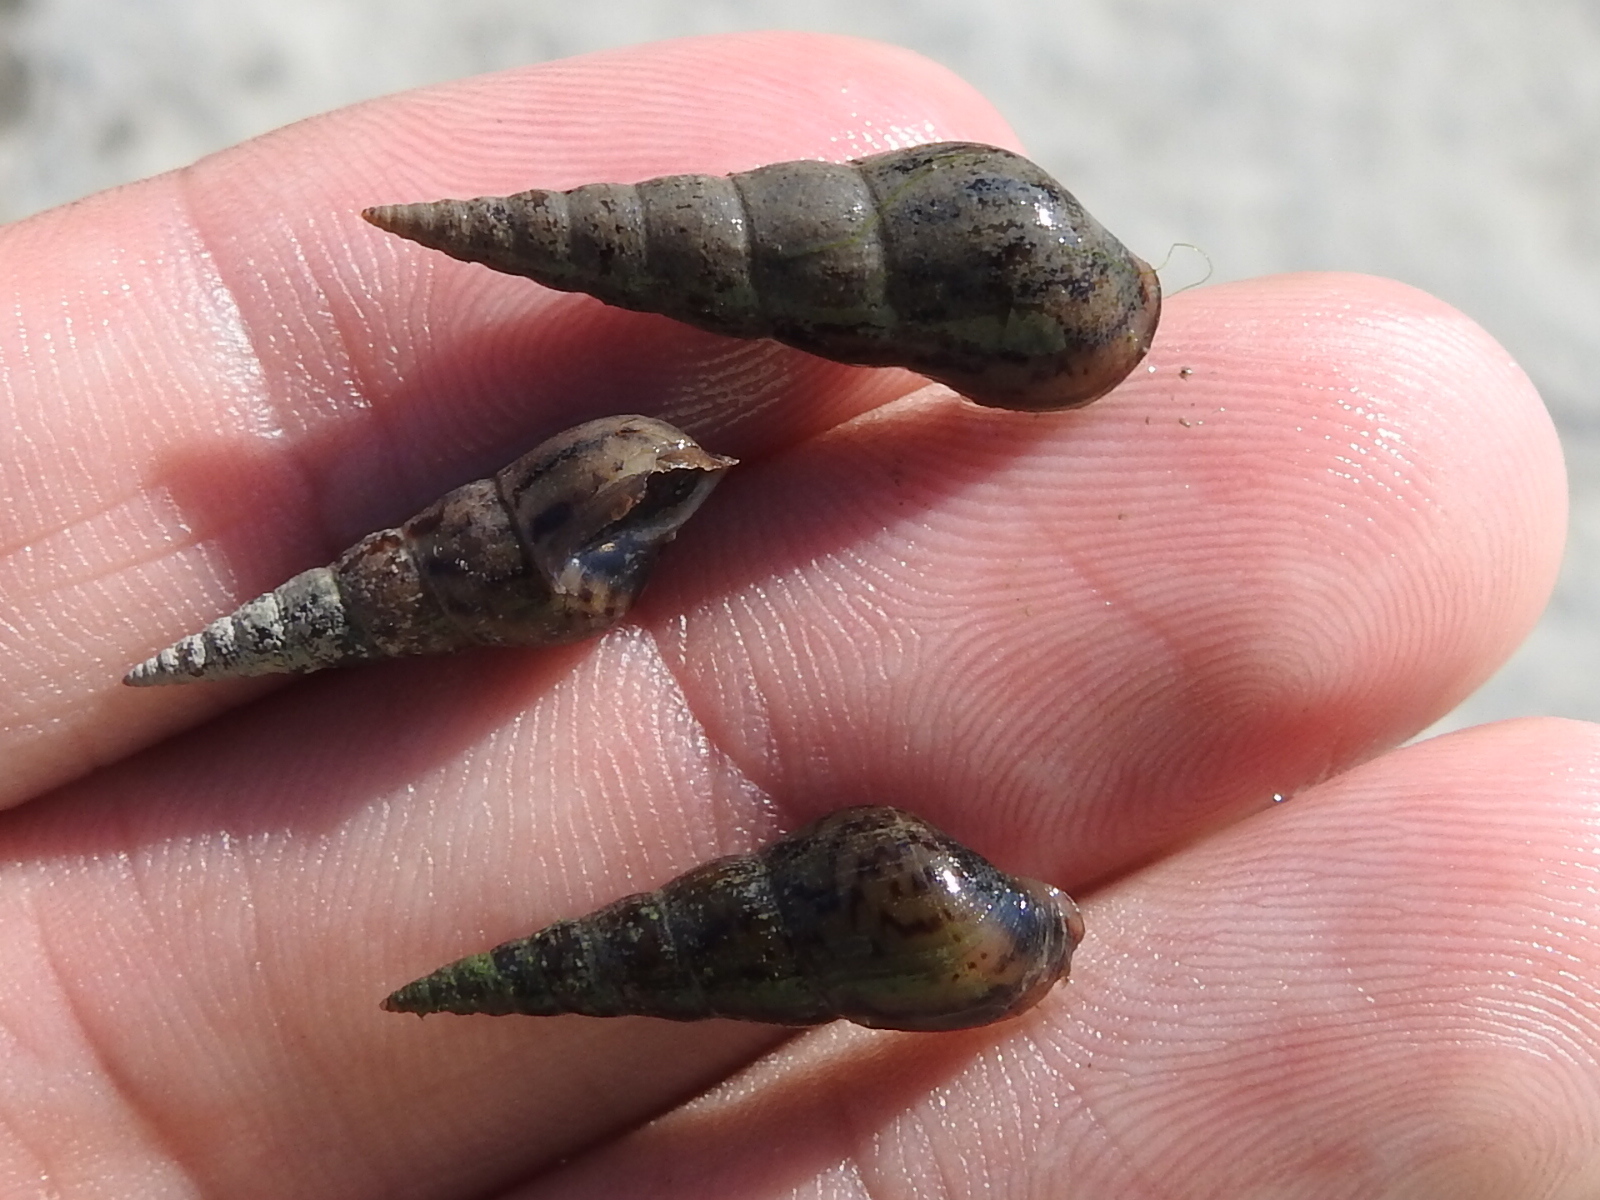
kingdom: Animalia
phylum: Mollusca
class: Gastropoda
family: Thiaridae
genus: Melanoides
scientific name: Melanoides tuberculata
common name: Red-rim melania
